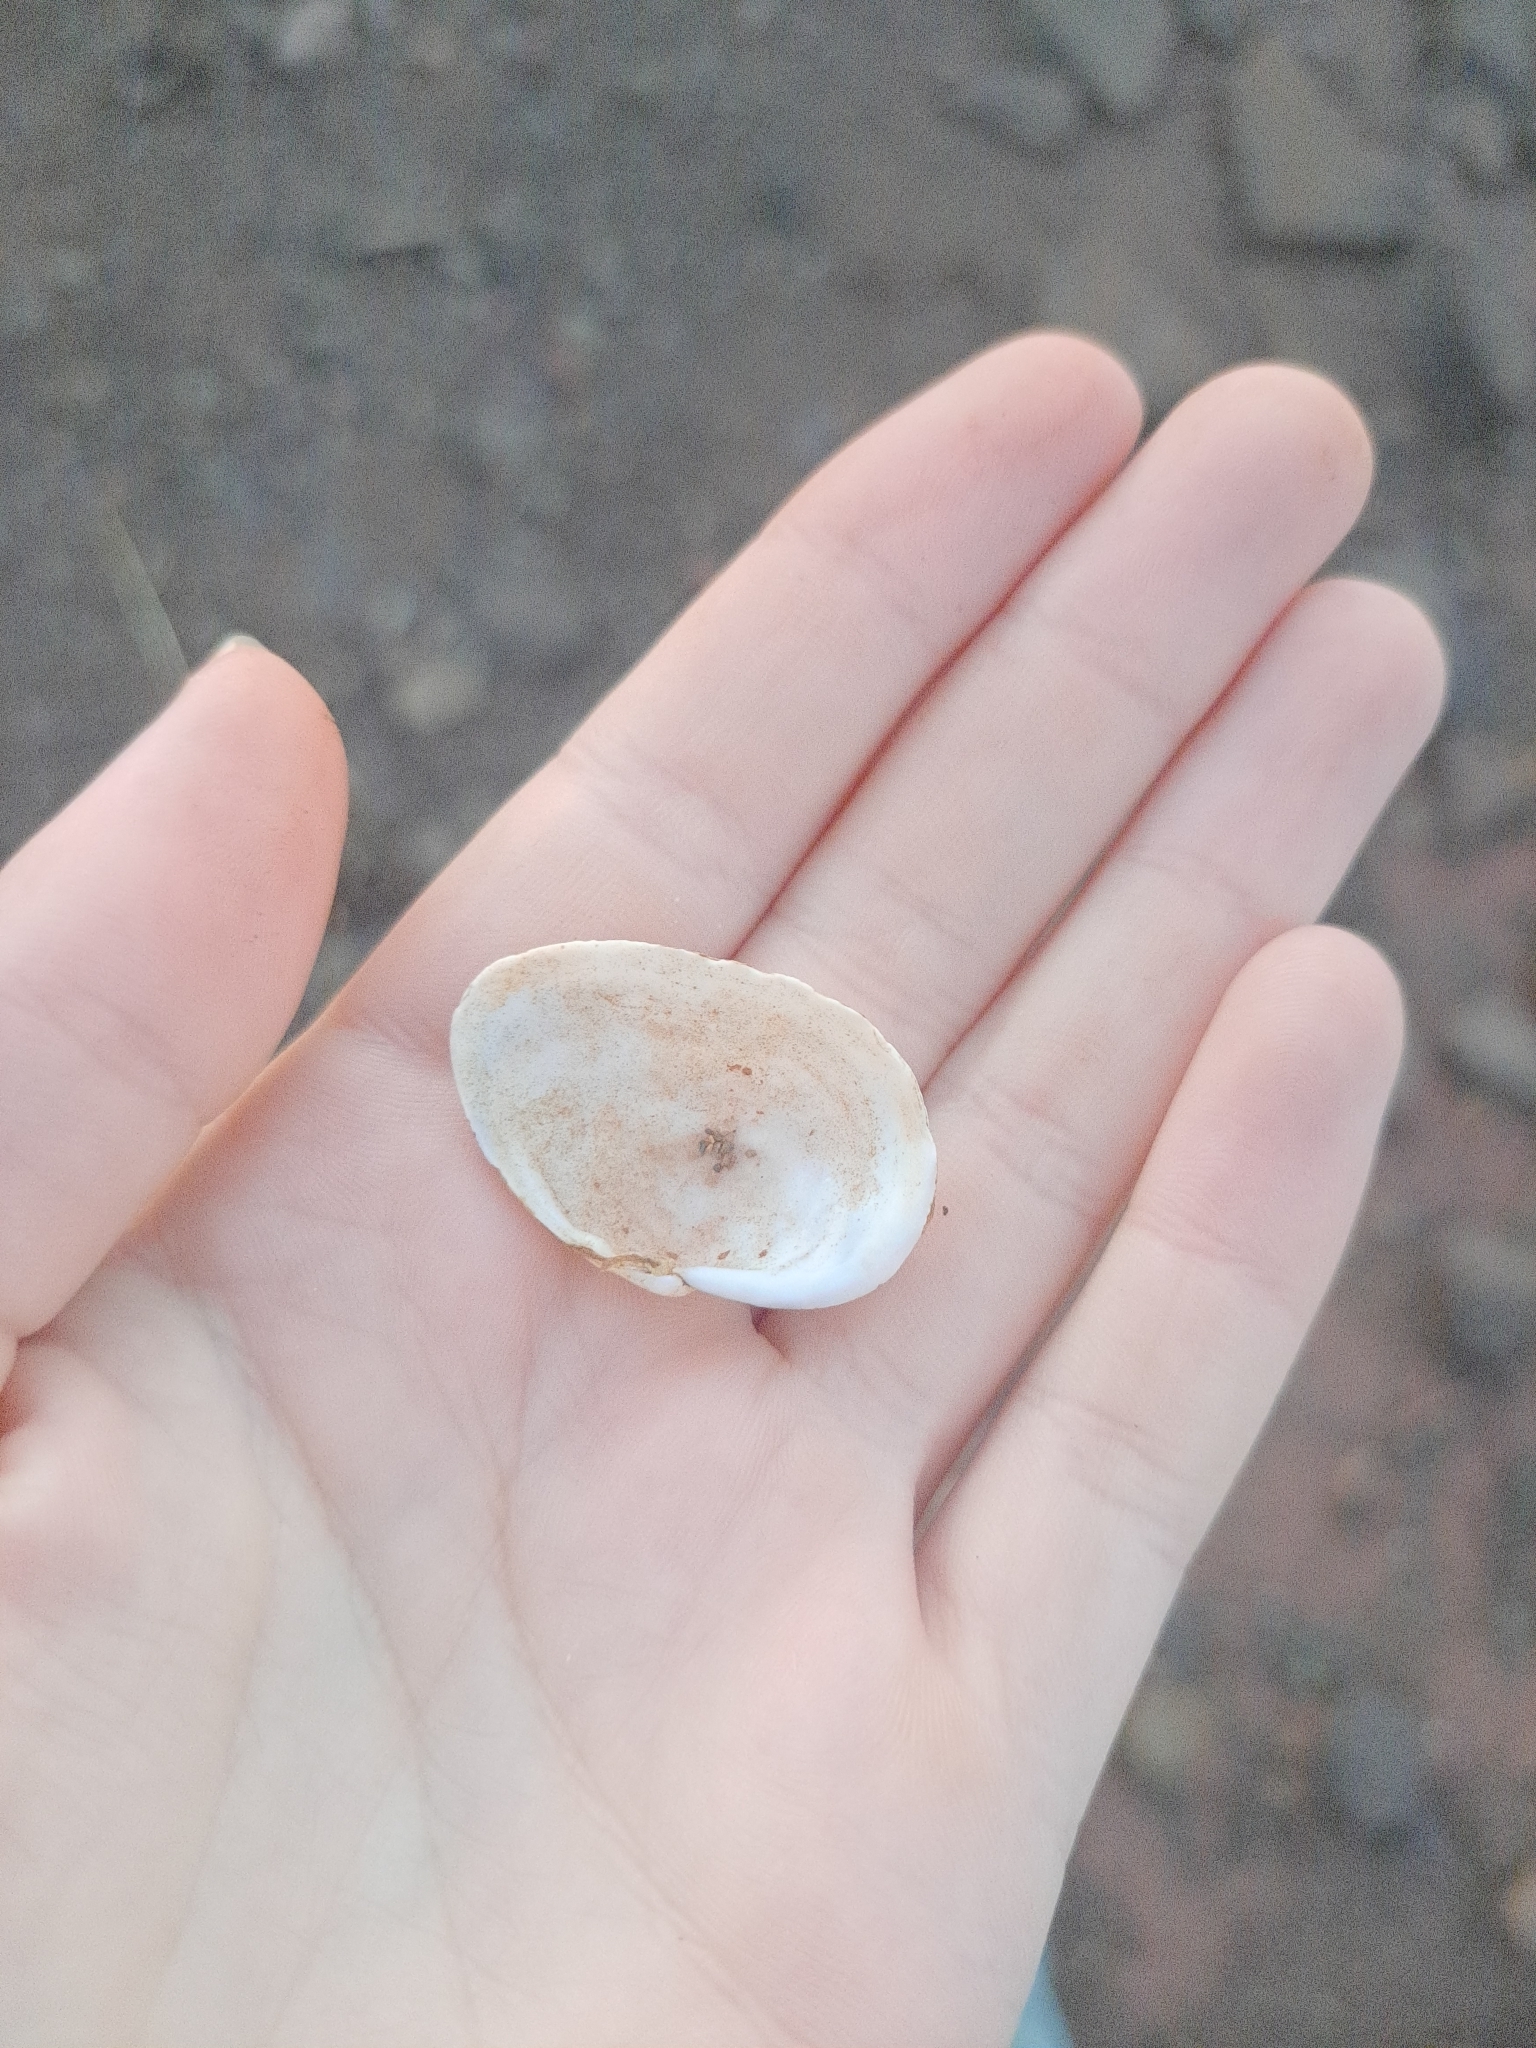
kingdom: Animalia
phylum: Mollusca
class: Bivalvia
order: Myida
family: Myidae
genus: Mya
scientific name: Mya arenaria
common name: Soft-shelled clam
